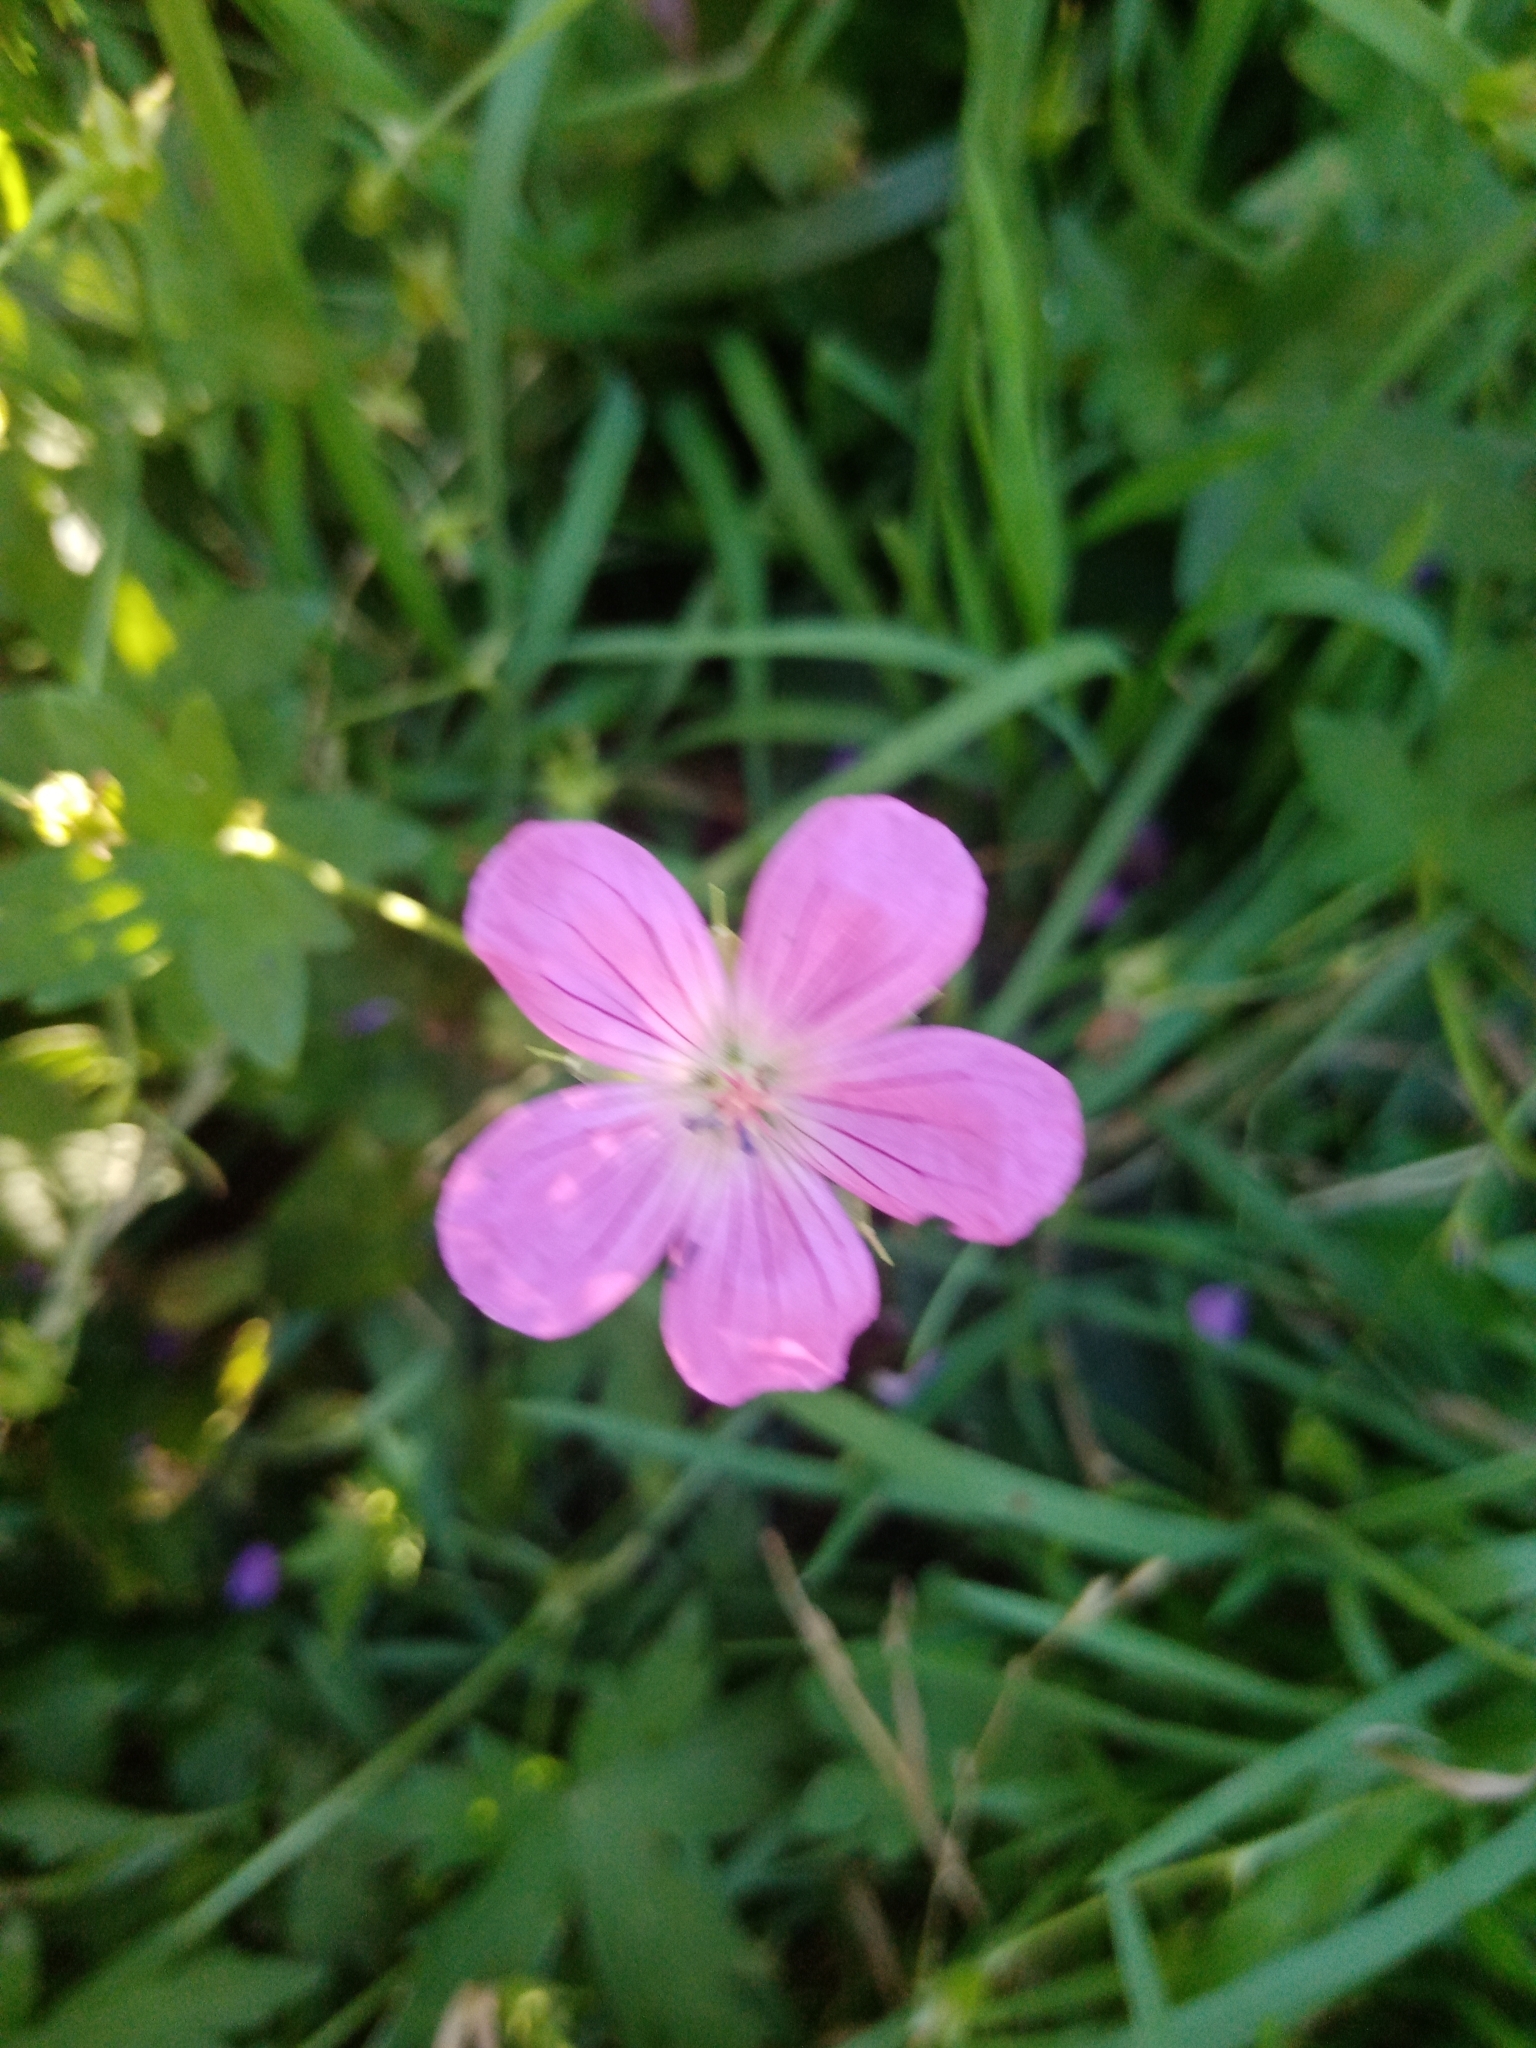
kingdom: Plantae
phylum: Tracheophyta
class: Magnoliopsida
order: Geraniales
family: Geraniaceae
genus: Geranium
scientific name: Geranium palustre
